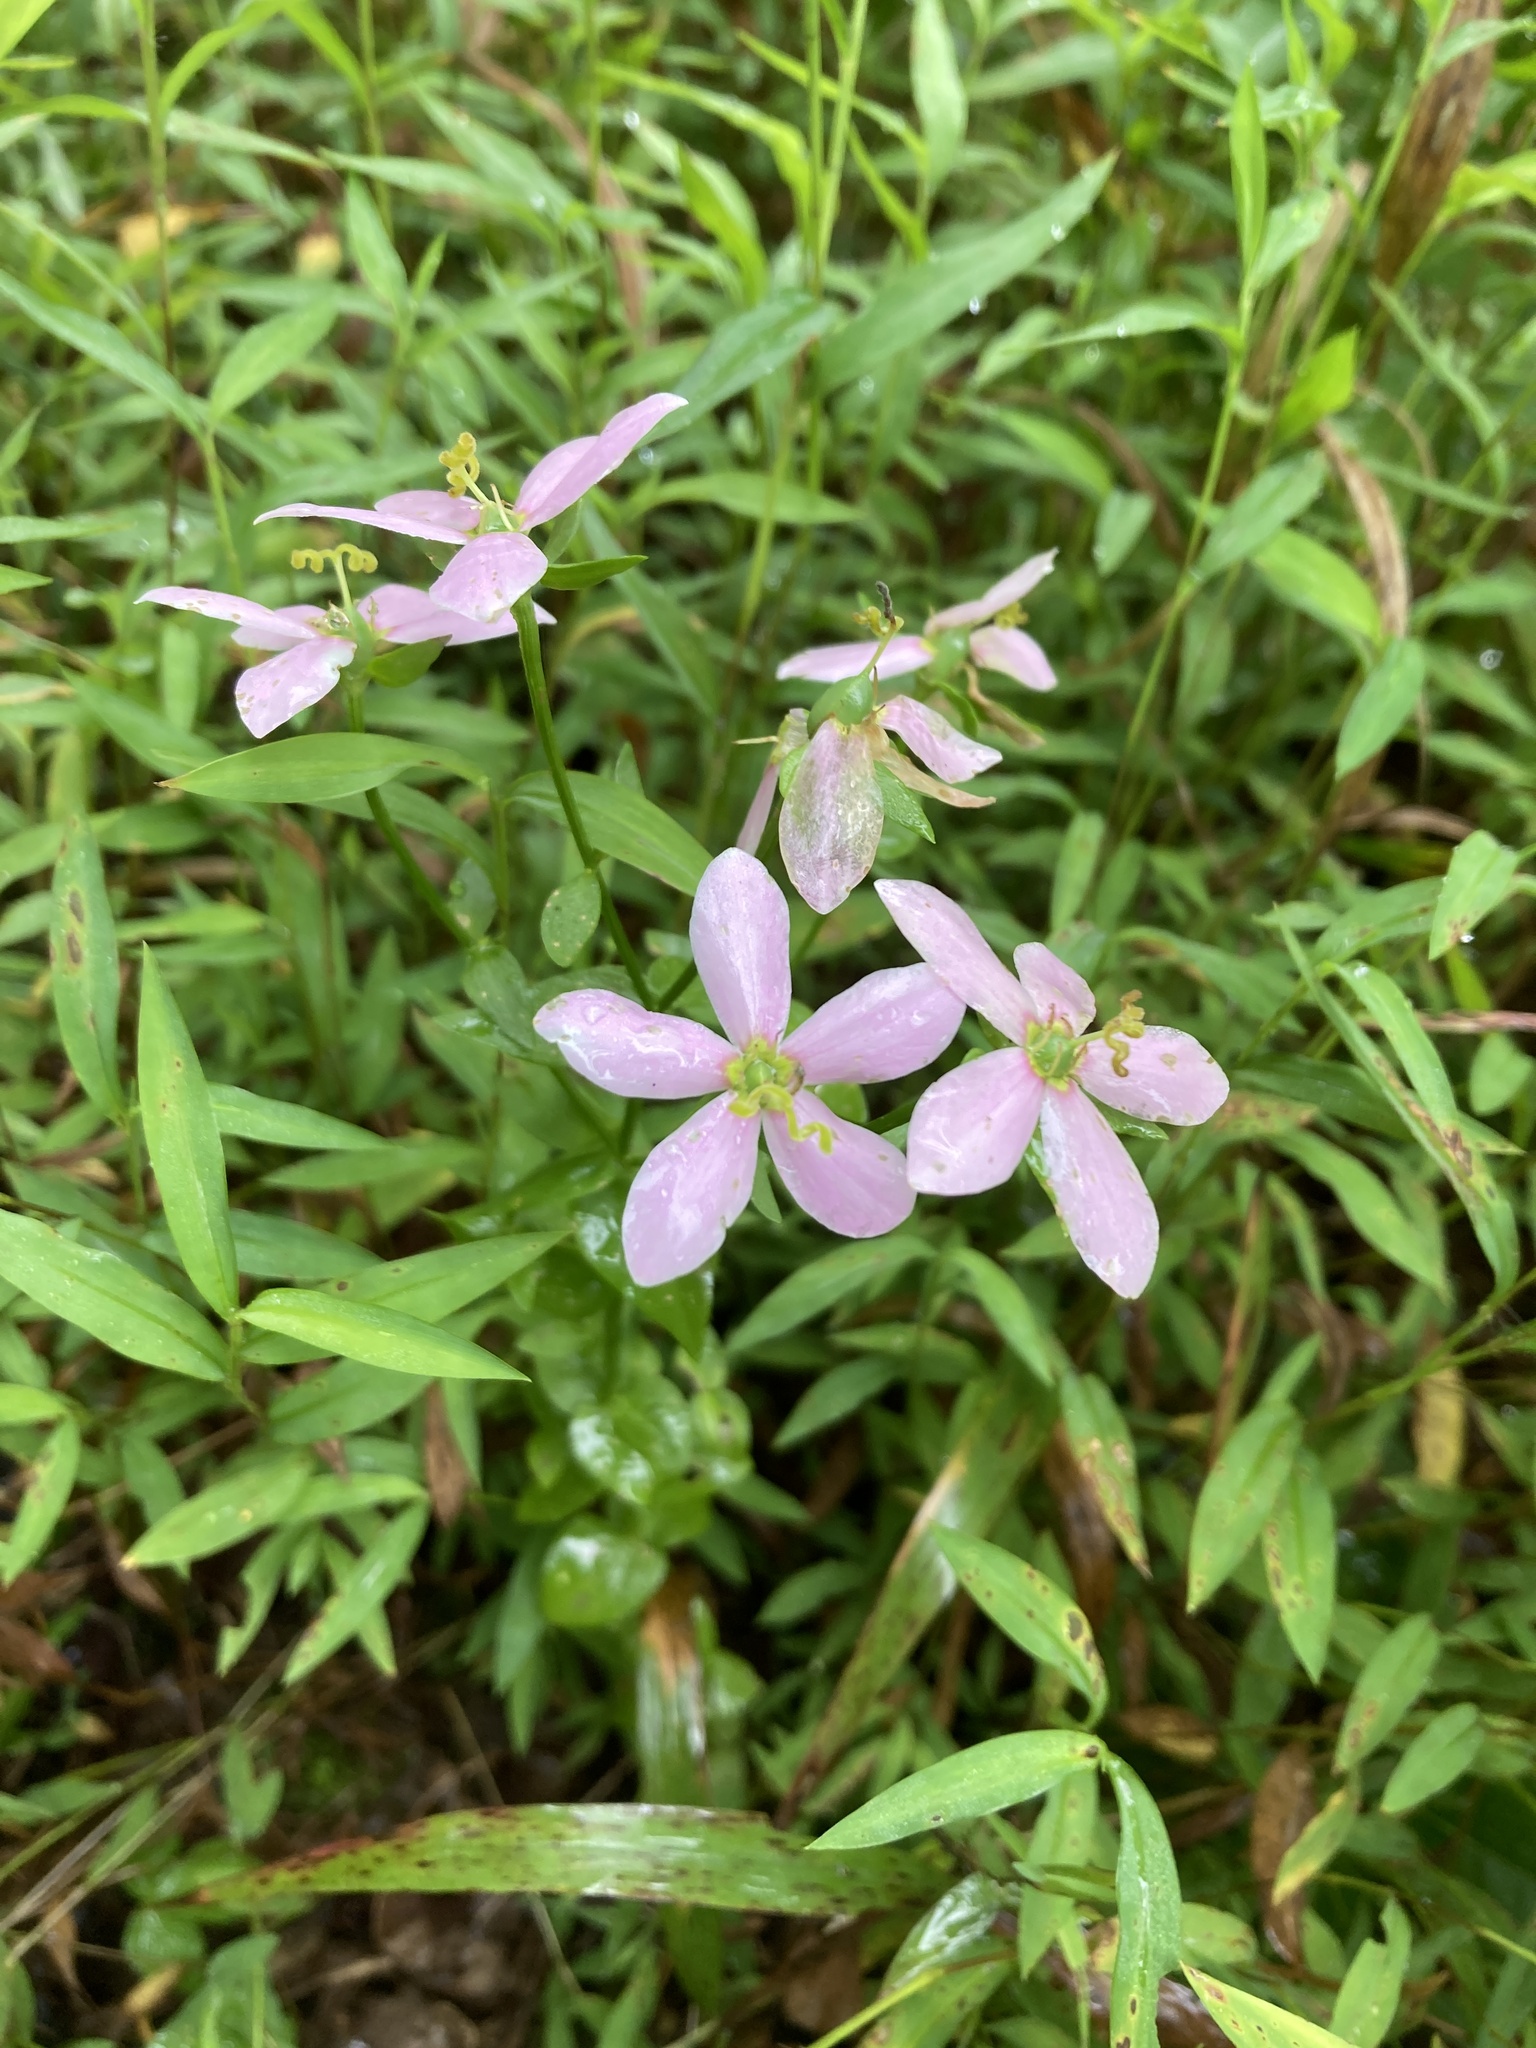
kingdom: Plantae
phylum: Tracheophyta
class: Magnoliopsida
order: Gentianales
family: Gentianaceae
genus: Sabatia
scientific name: Sabatia angularis
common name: Rose-pink
